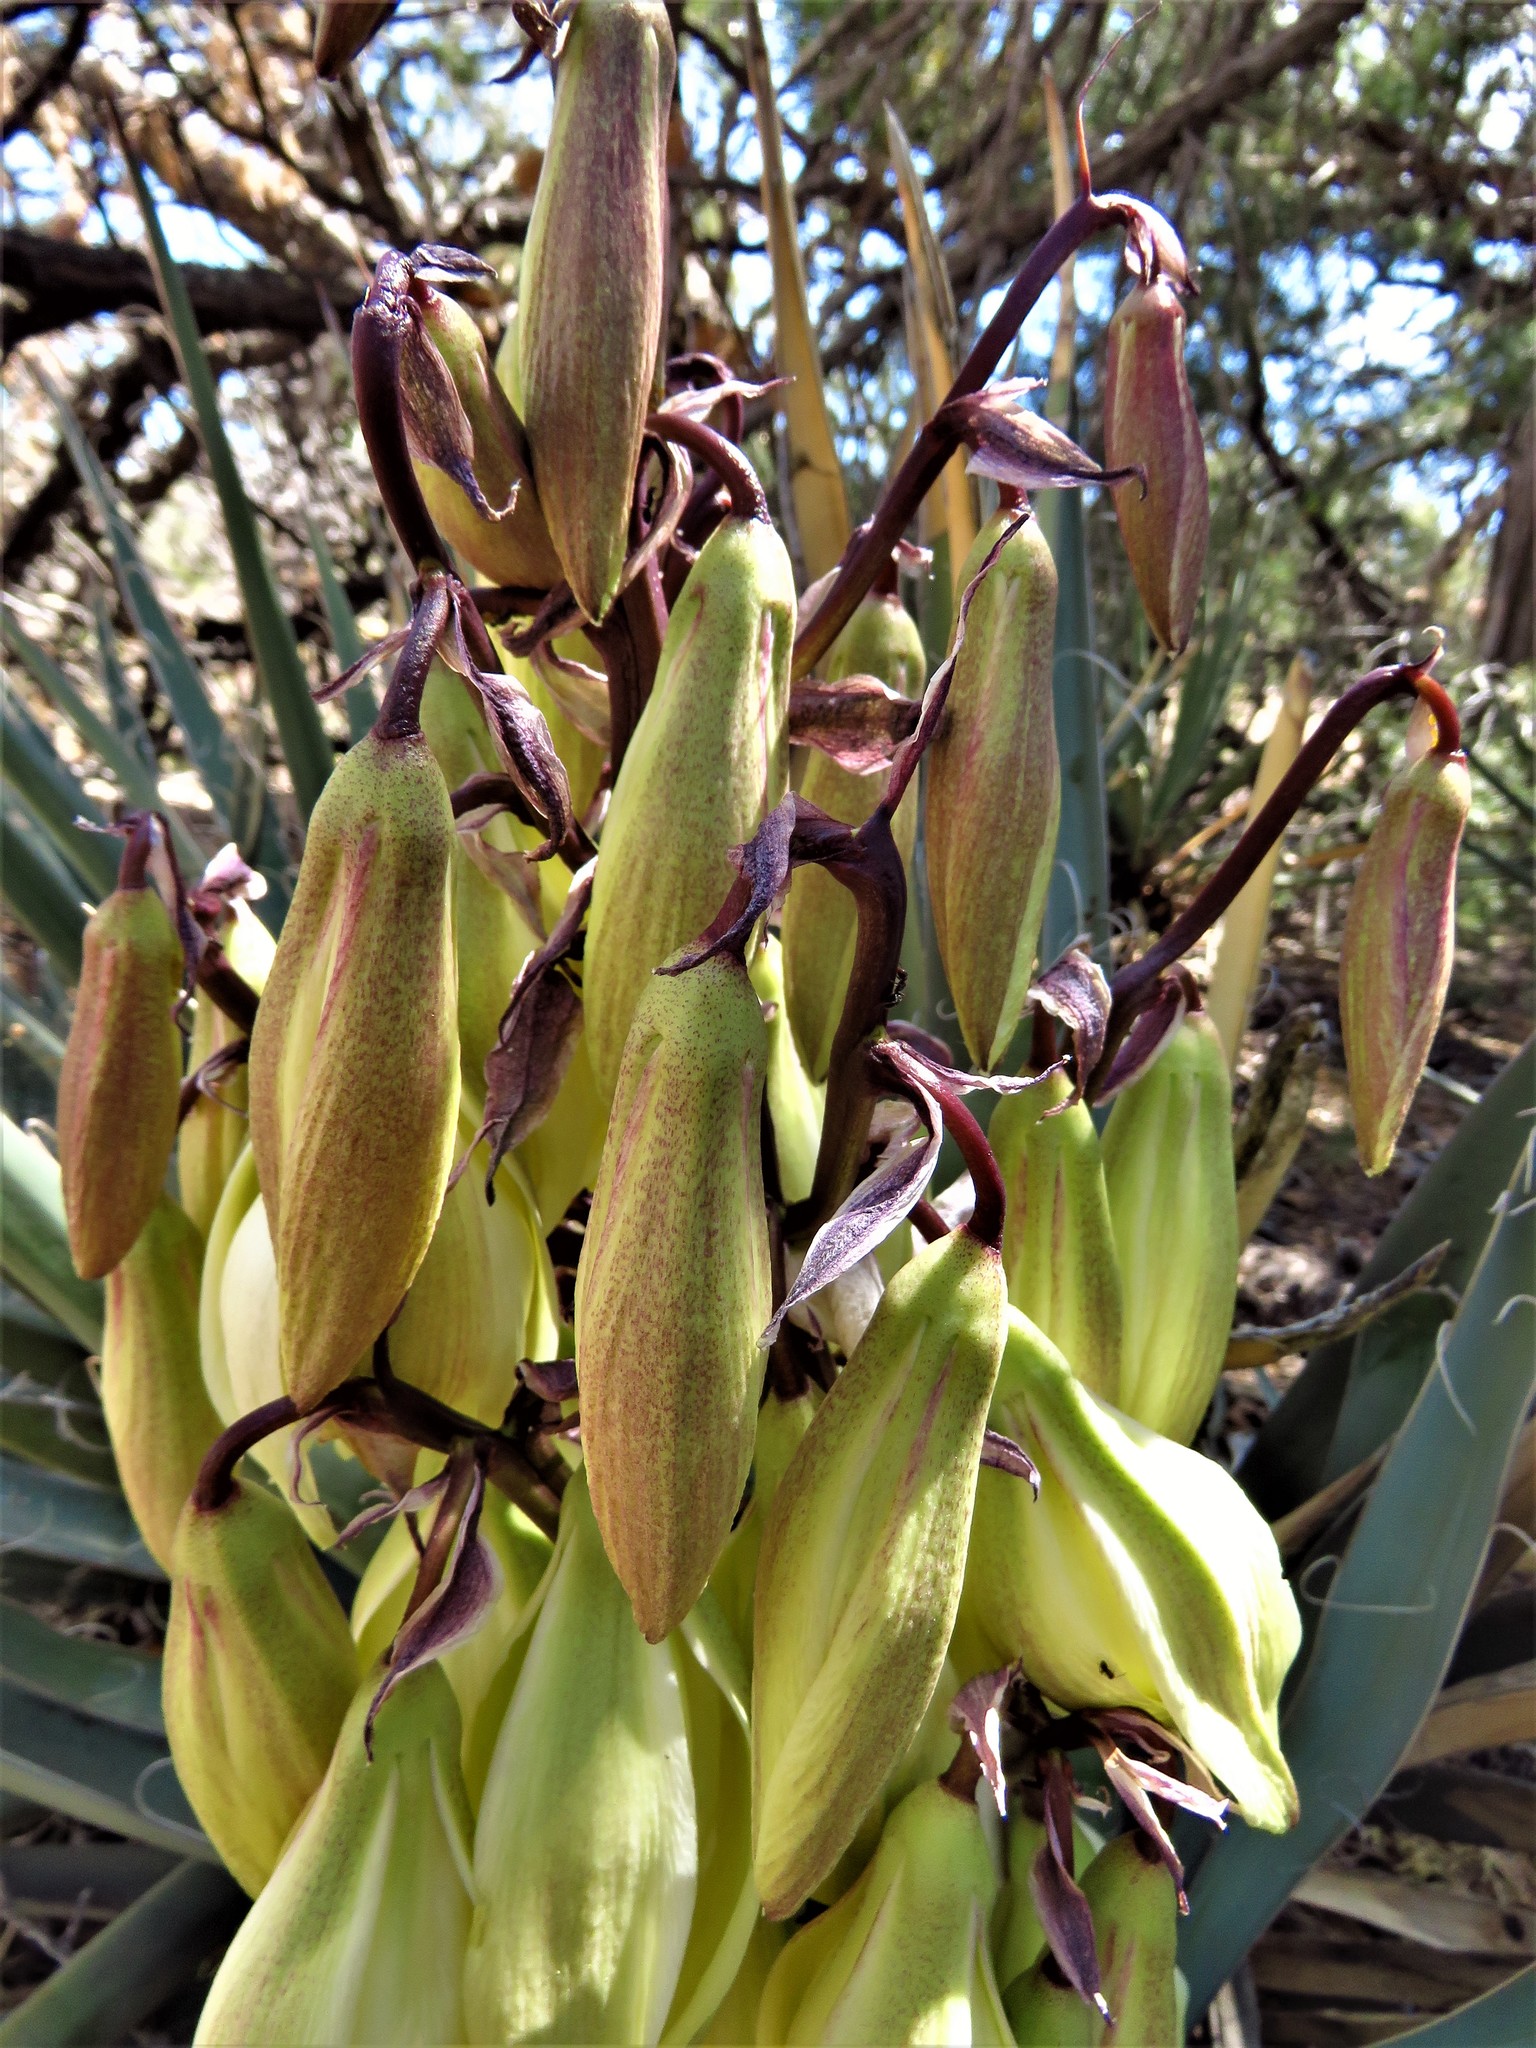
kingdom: Plantae
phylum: Tracheophyta
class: Liliopsida
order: Asparagales
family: Asparagaceae
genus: Yucca
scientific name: Yucca baccata
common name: Banana yucca
